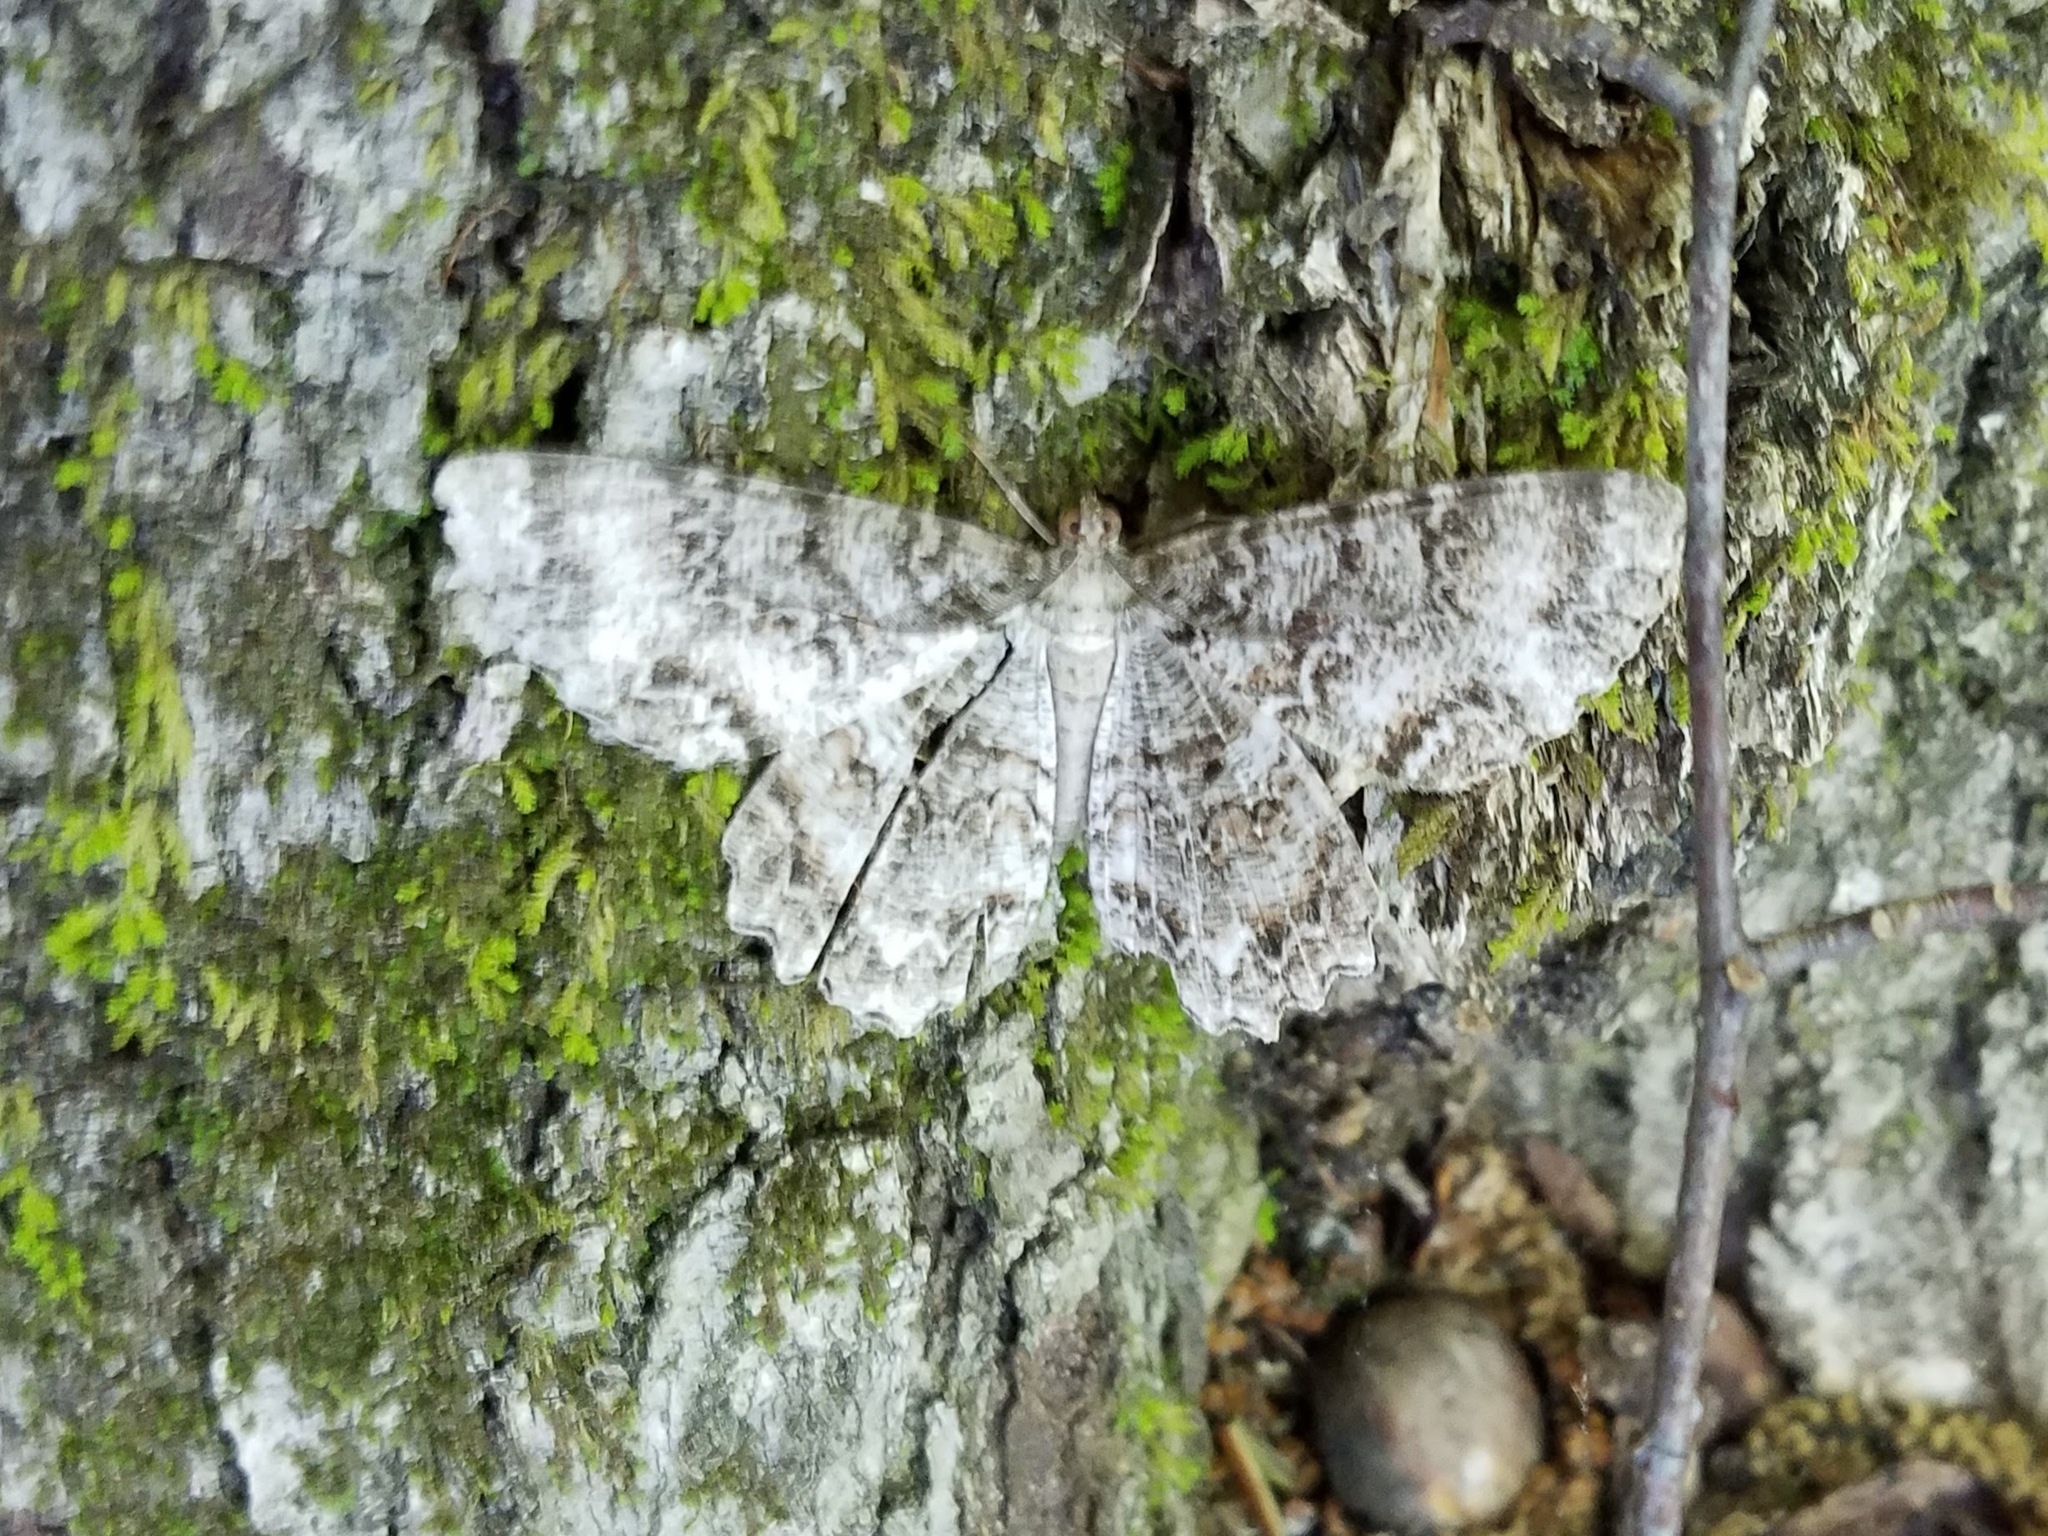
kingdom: Animalia
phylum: Arthropoda
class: Insecta
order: Lepidoptera
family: Geometridae
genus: Epimecis
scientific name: Epimecis hortaria
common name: Tulip-tree beauty
